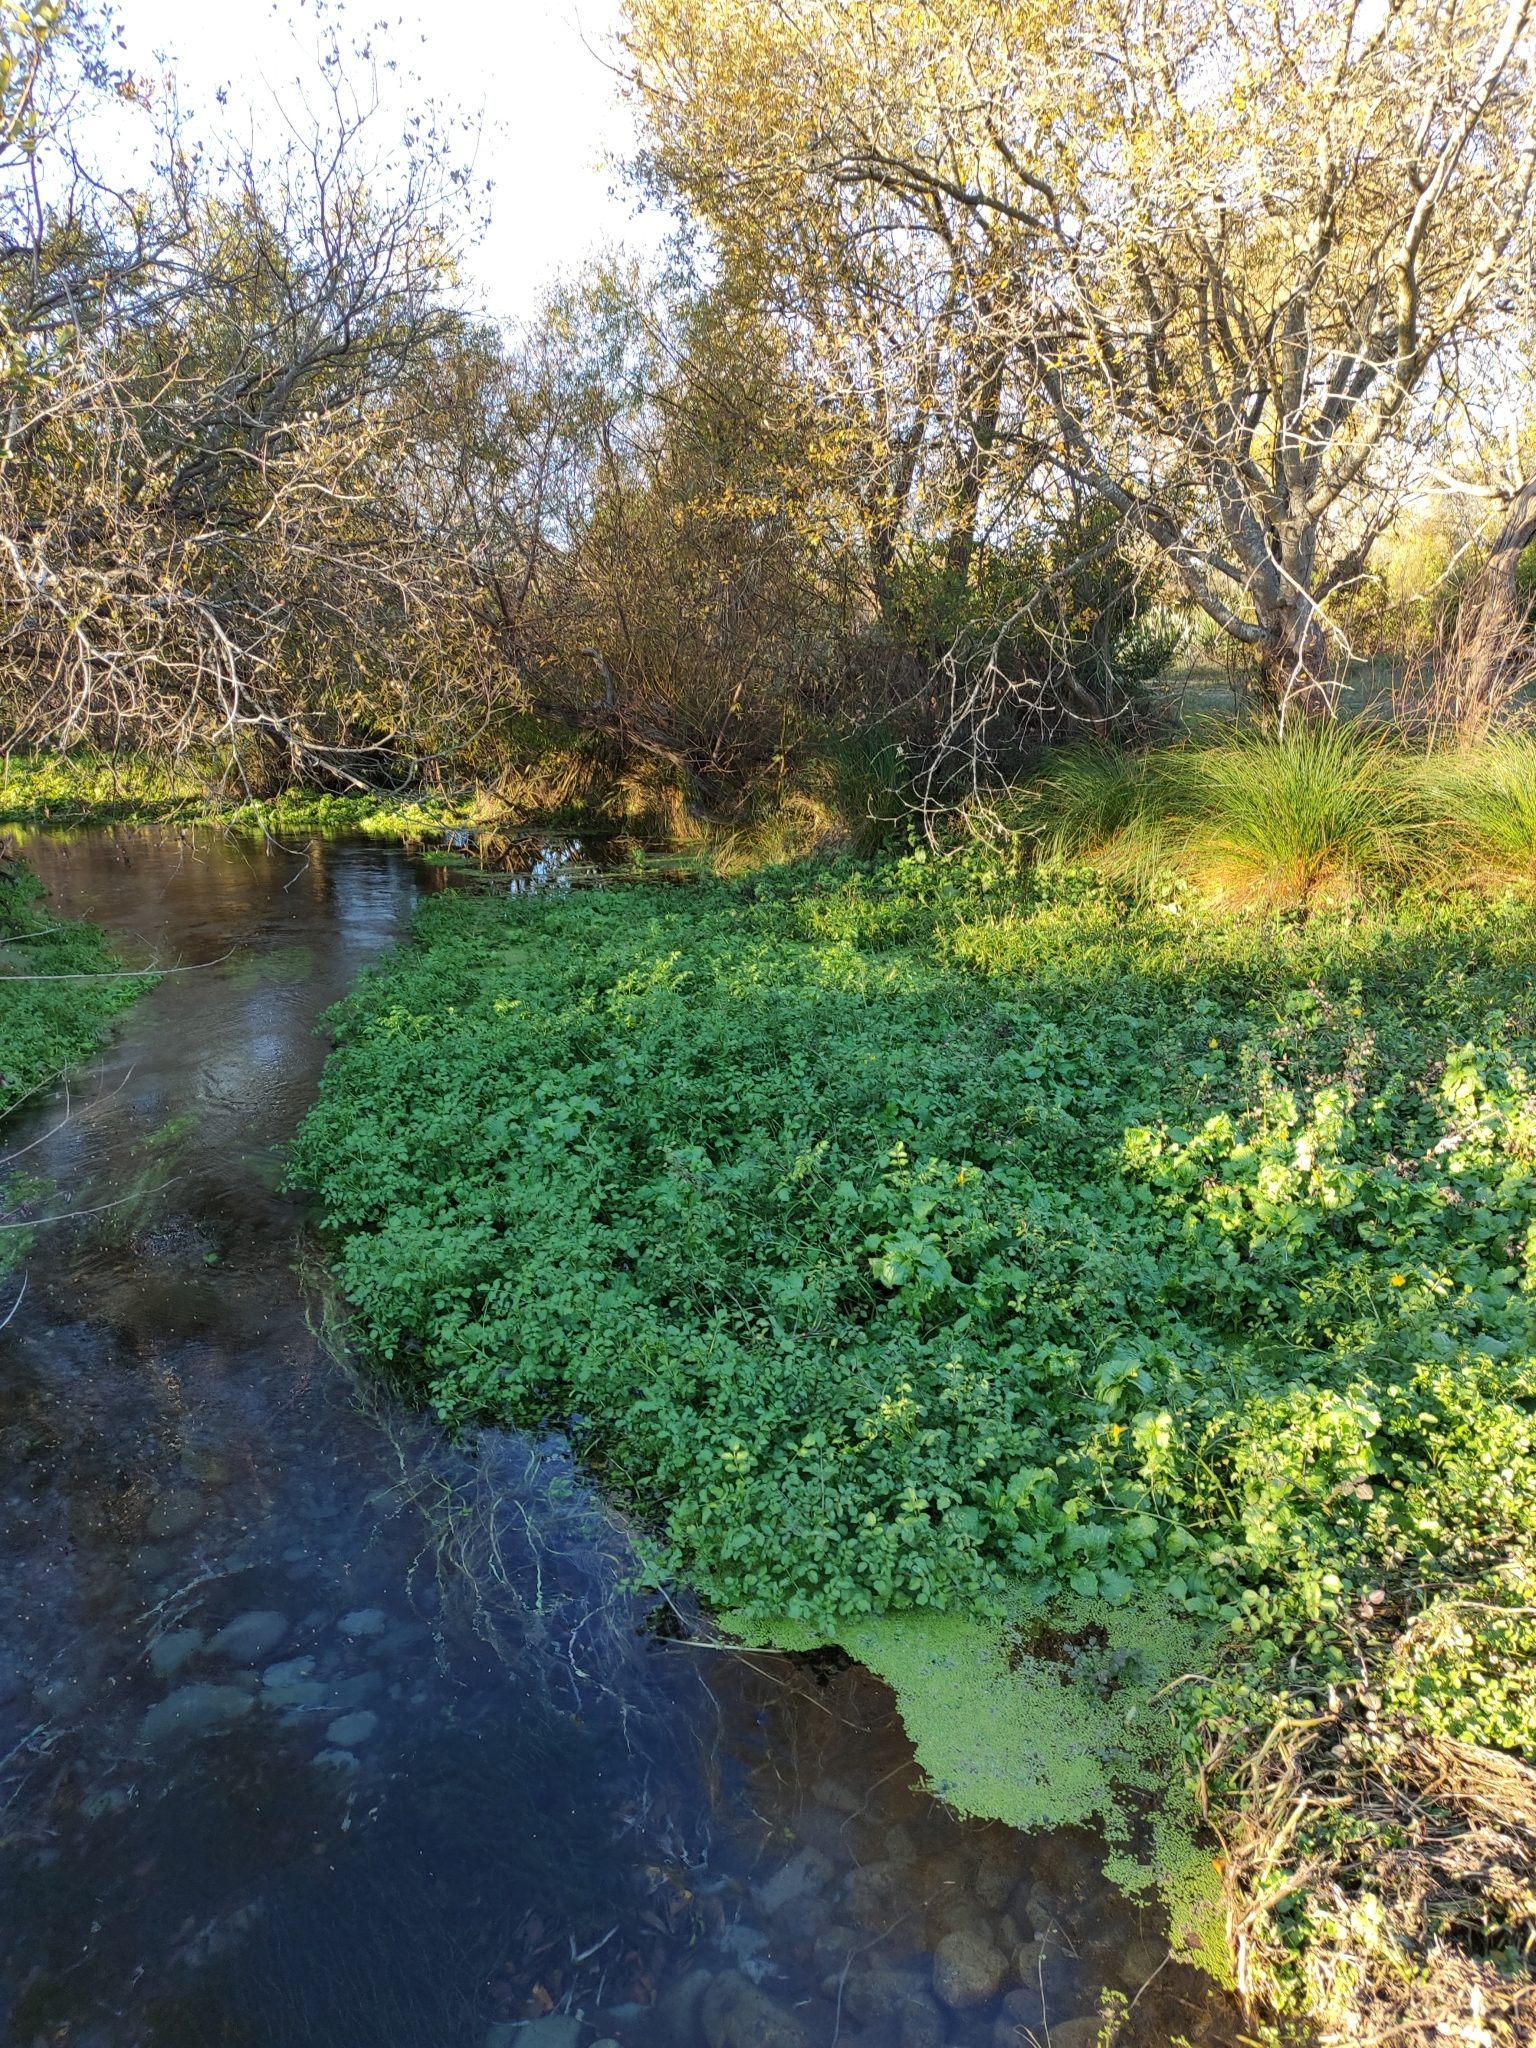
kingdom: Plantae
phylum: Tracheophyta
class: Magnoliopsida
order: Brassicales
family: Brassicaceae
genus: Nasturtium
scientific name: Nasturtium officinale
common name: Watercress
